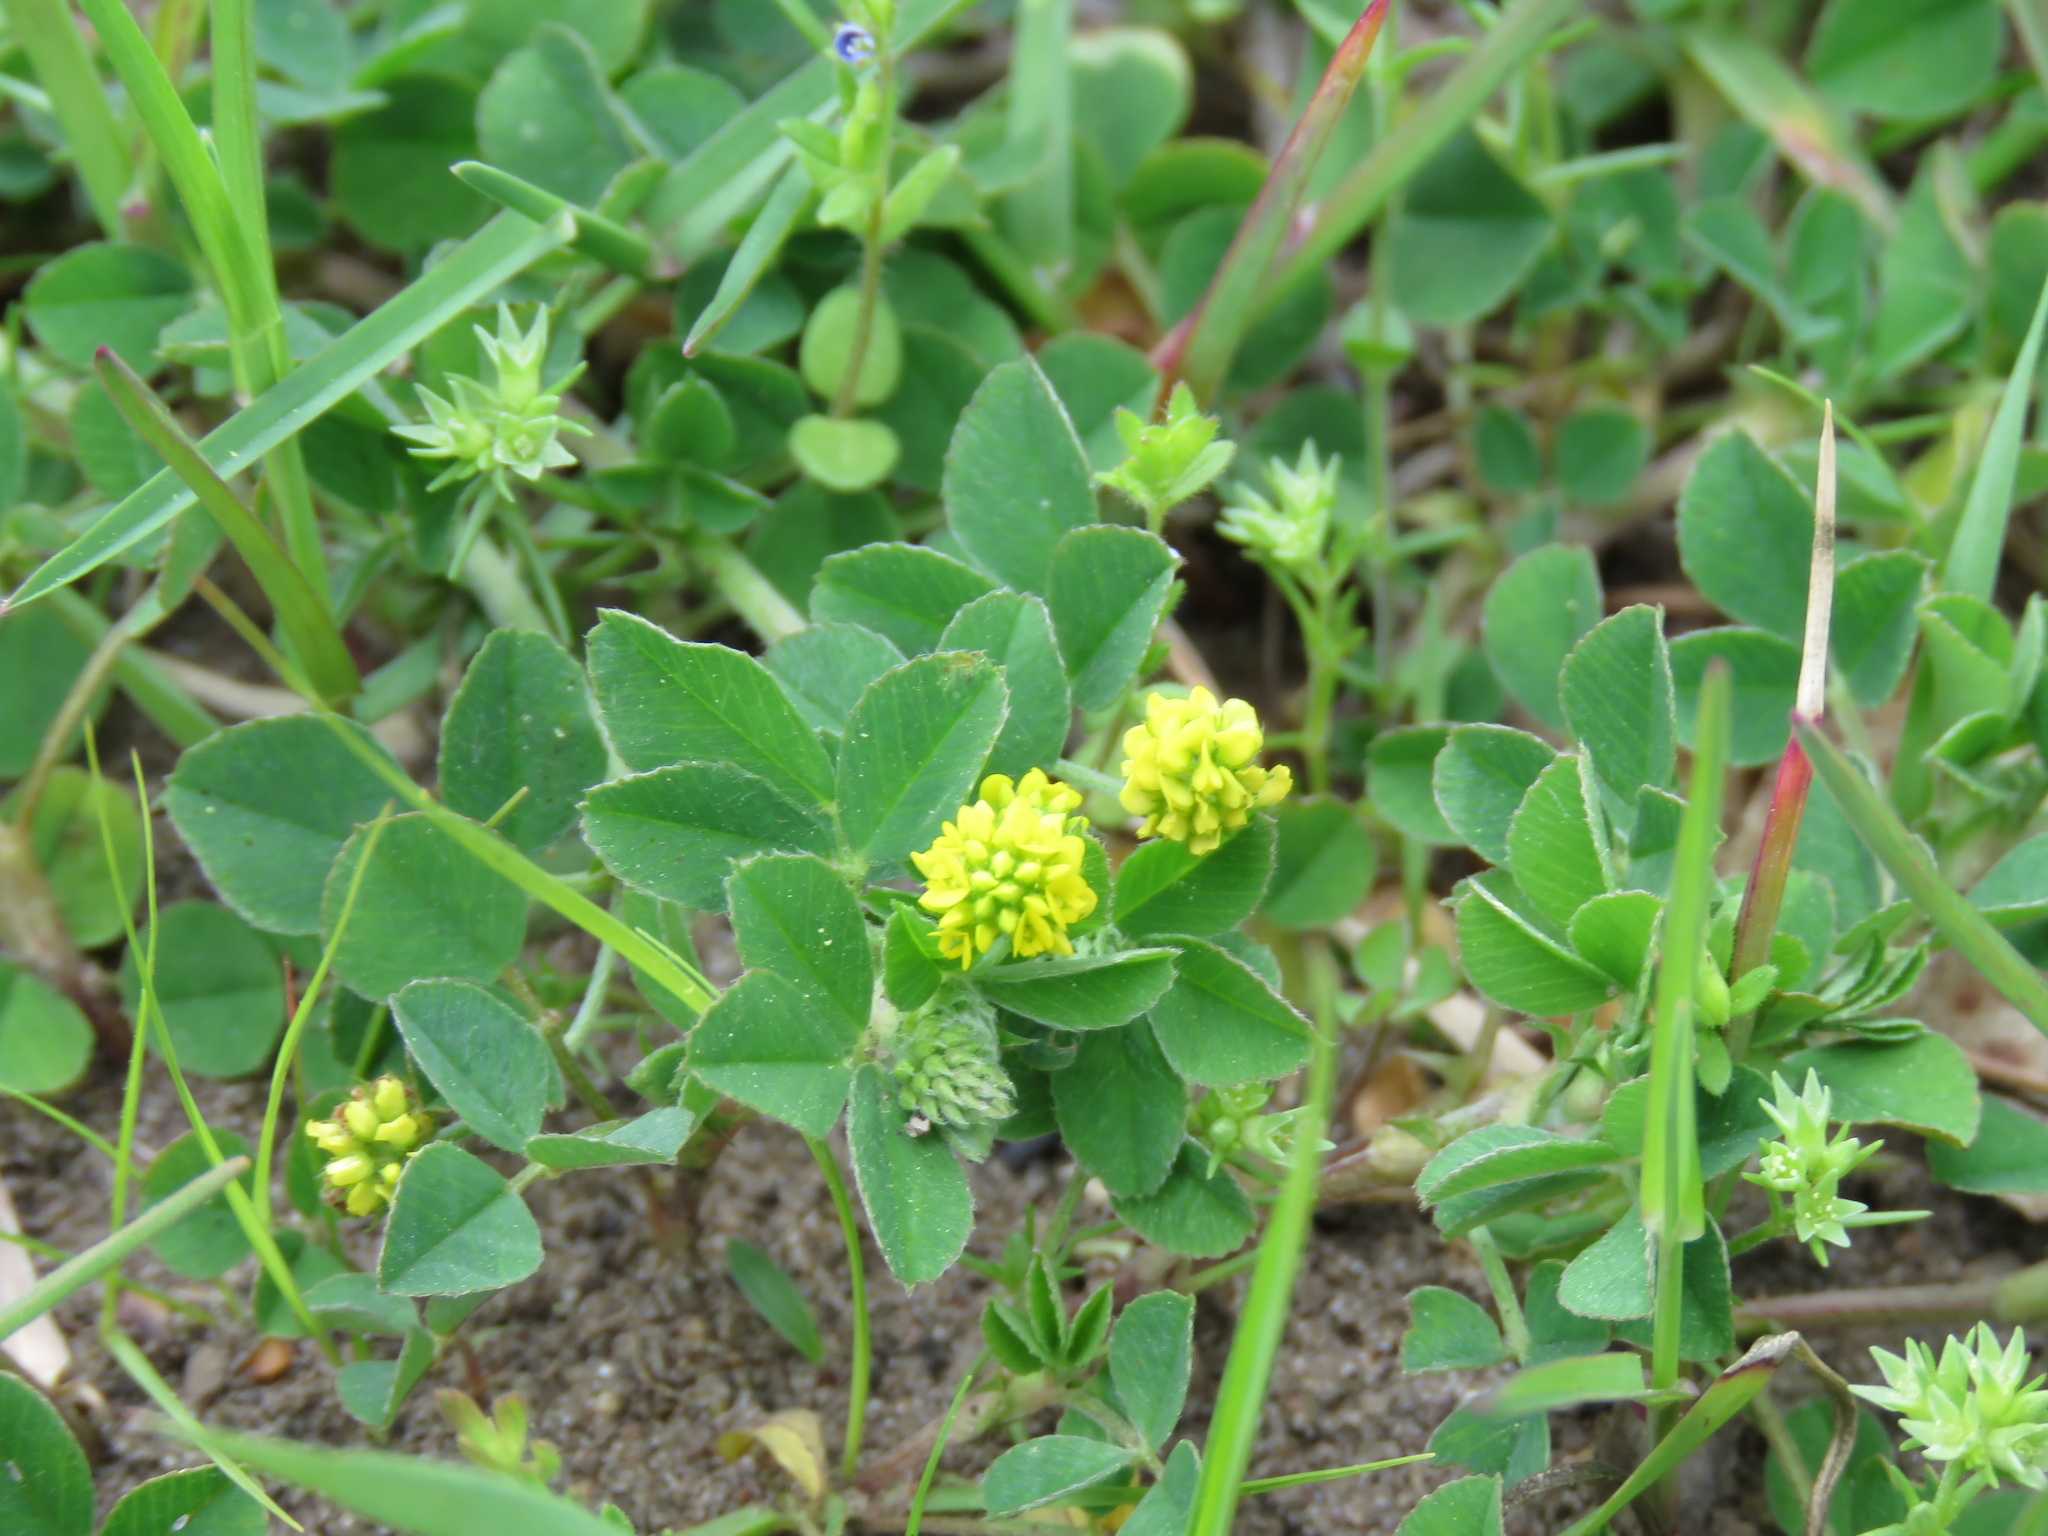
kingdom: Plantae
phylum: Tracheophyta
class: Magnoliopsida
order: Fabales
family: Fabaceae
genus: Medicago
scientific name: Medicago lupulina
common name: Black medick
